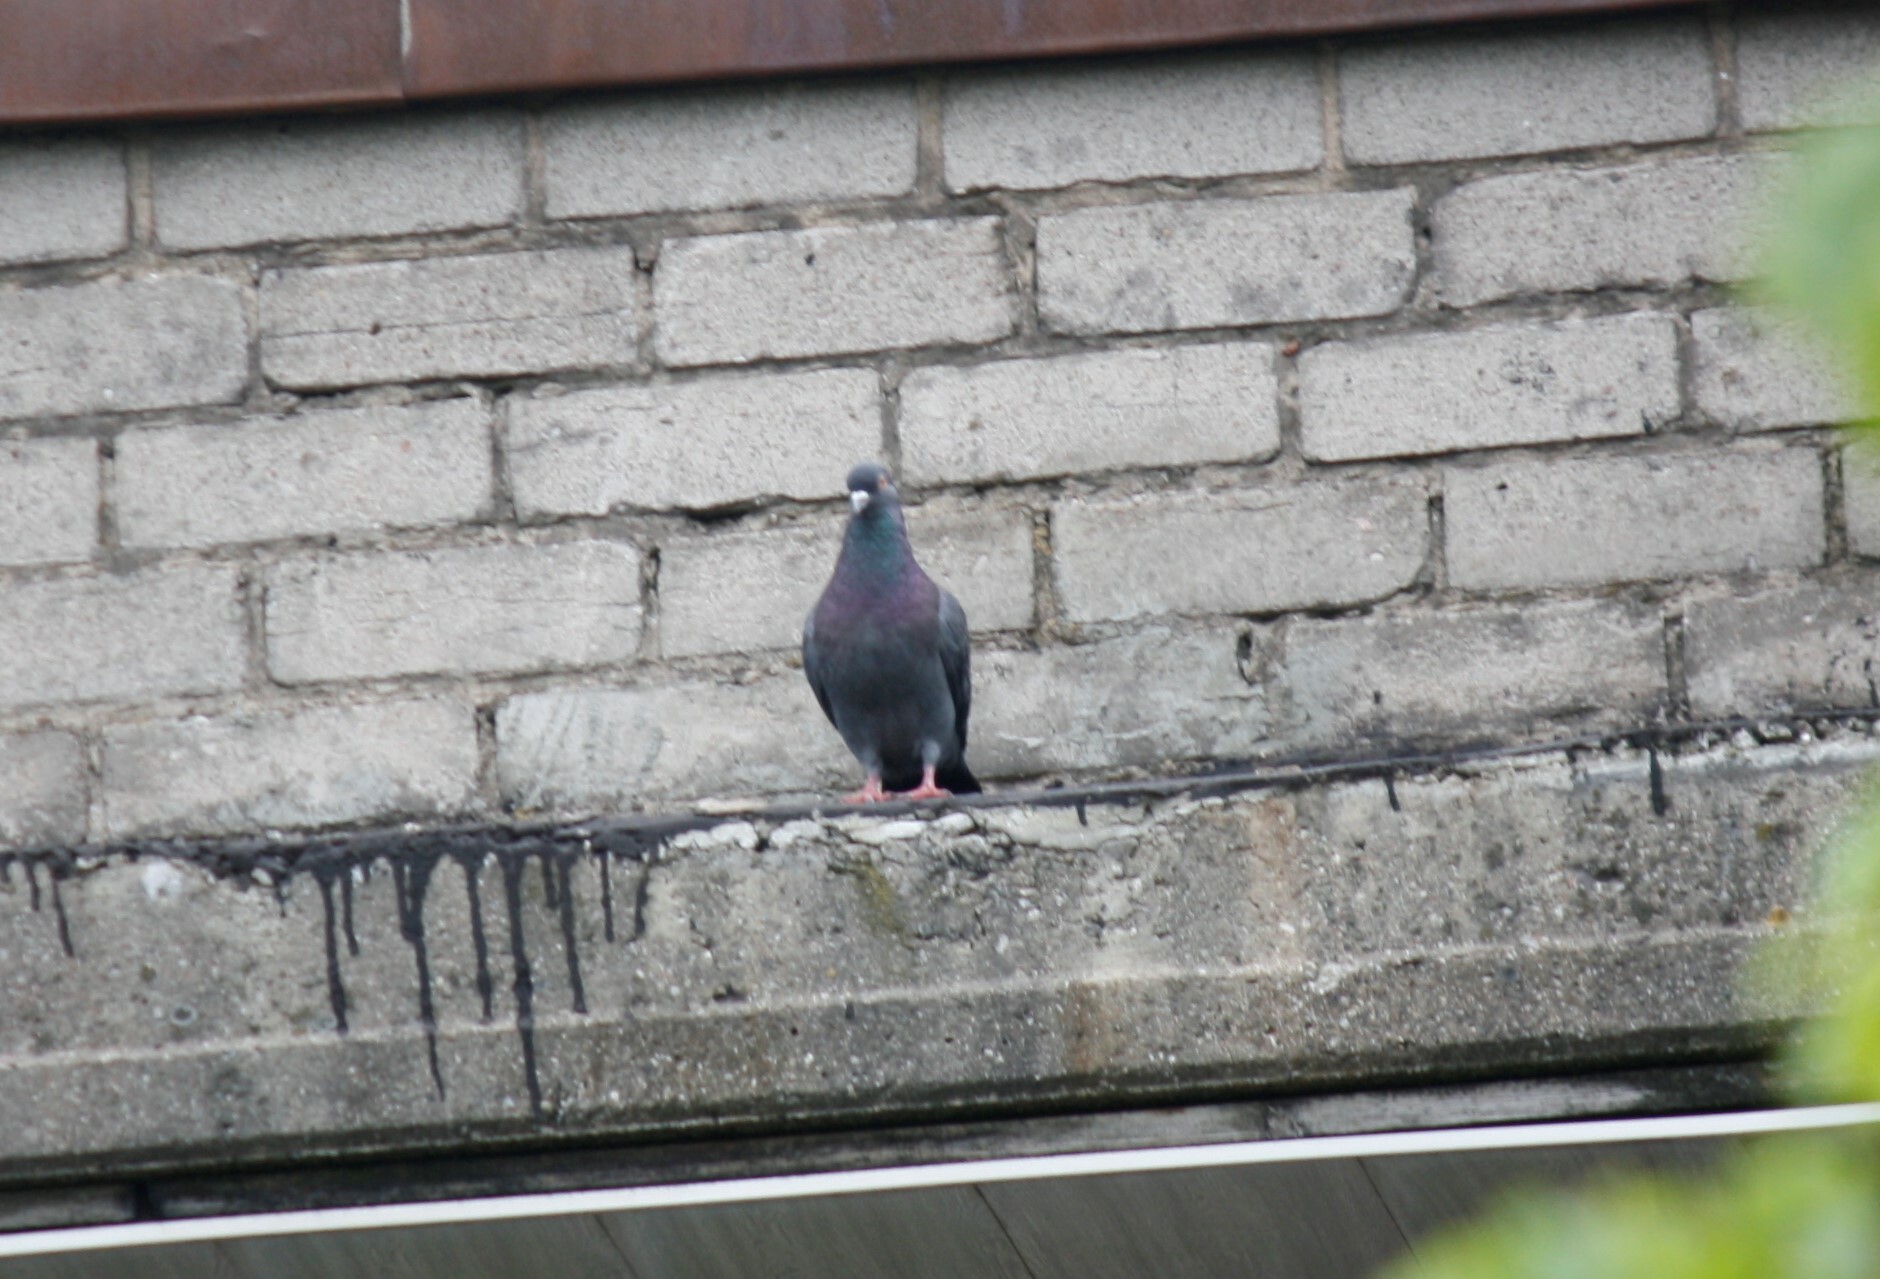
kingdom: Animalia
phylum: Chordata
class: Aves
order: Columbiformes
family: Columbidae
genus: Columba
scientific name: Columba livia
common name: Rock pigeon
